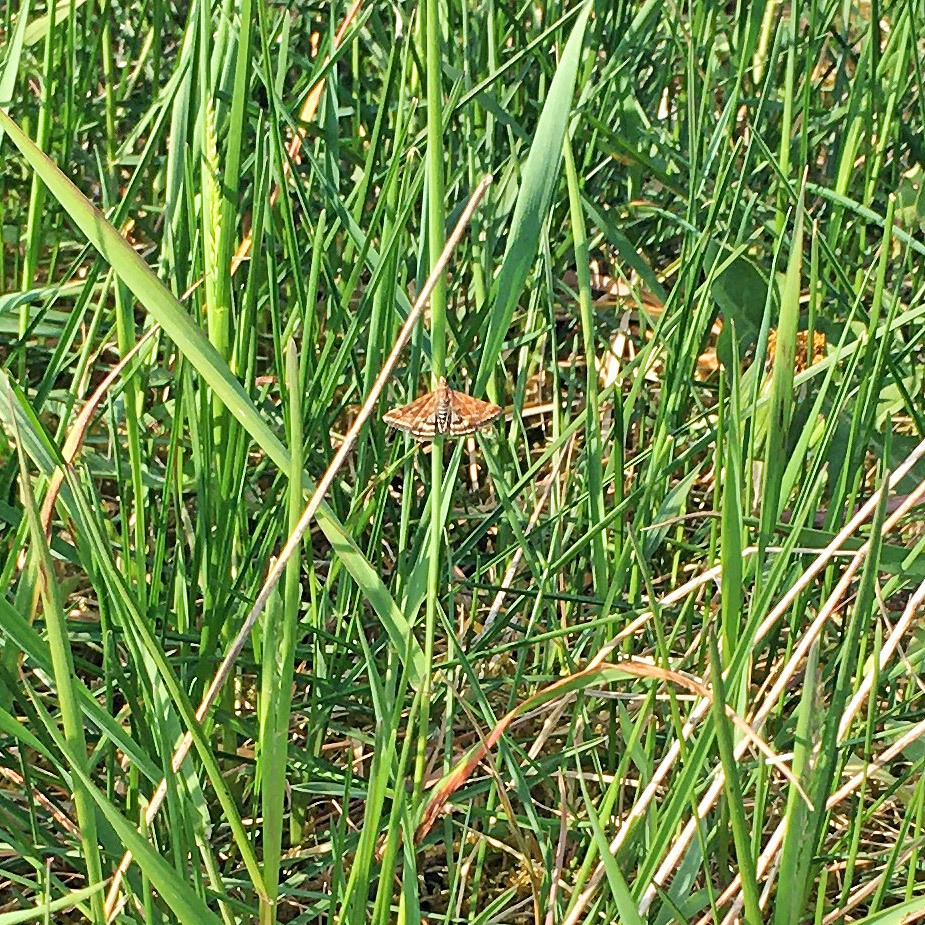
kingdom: Animalia
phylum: Arthropoda
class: Insecta
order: Lepidoptera
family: Crambidae
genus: Pyrausta
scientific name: Pyrausta despicata
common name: Straw-barred pearl
